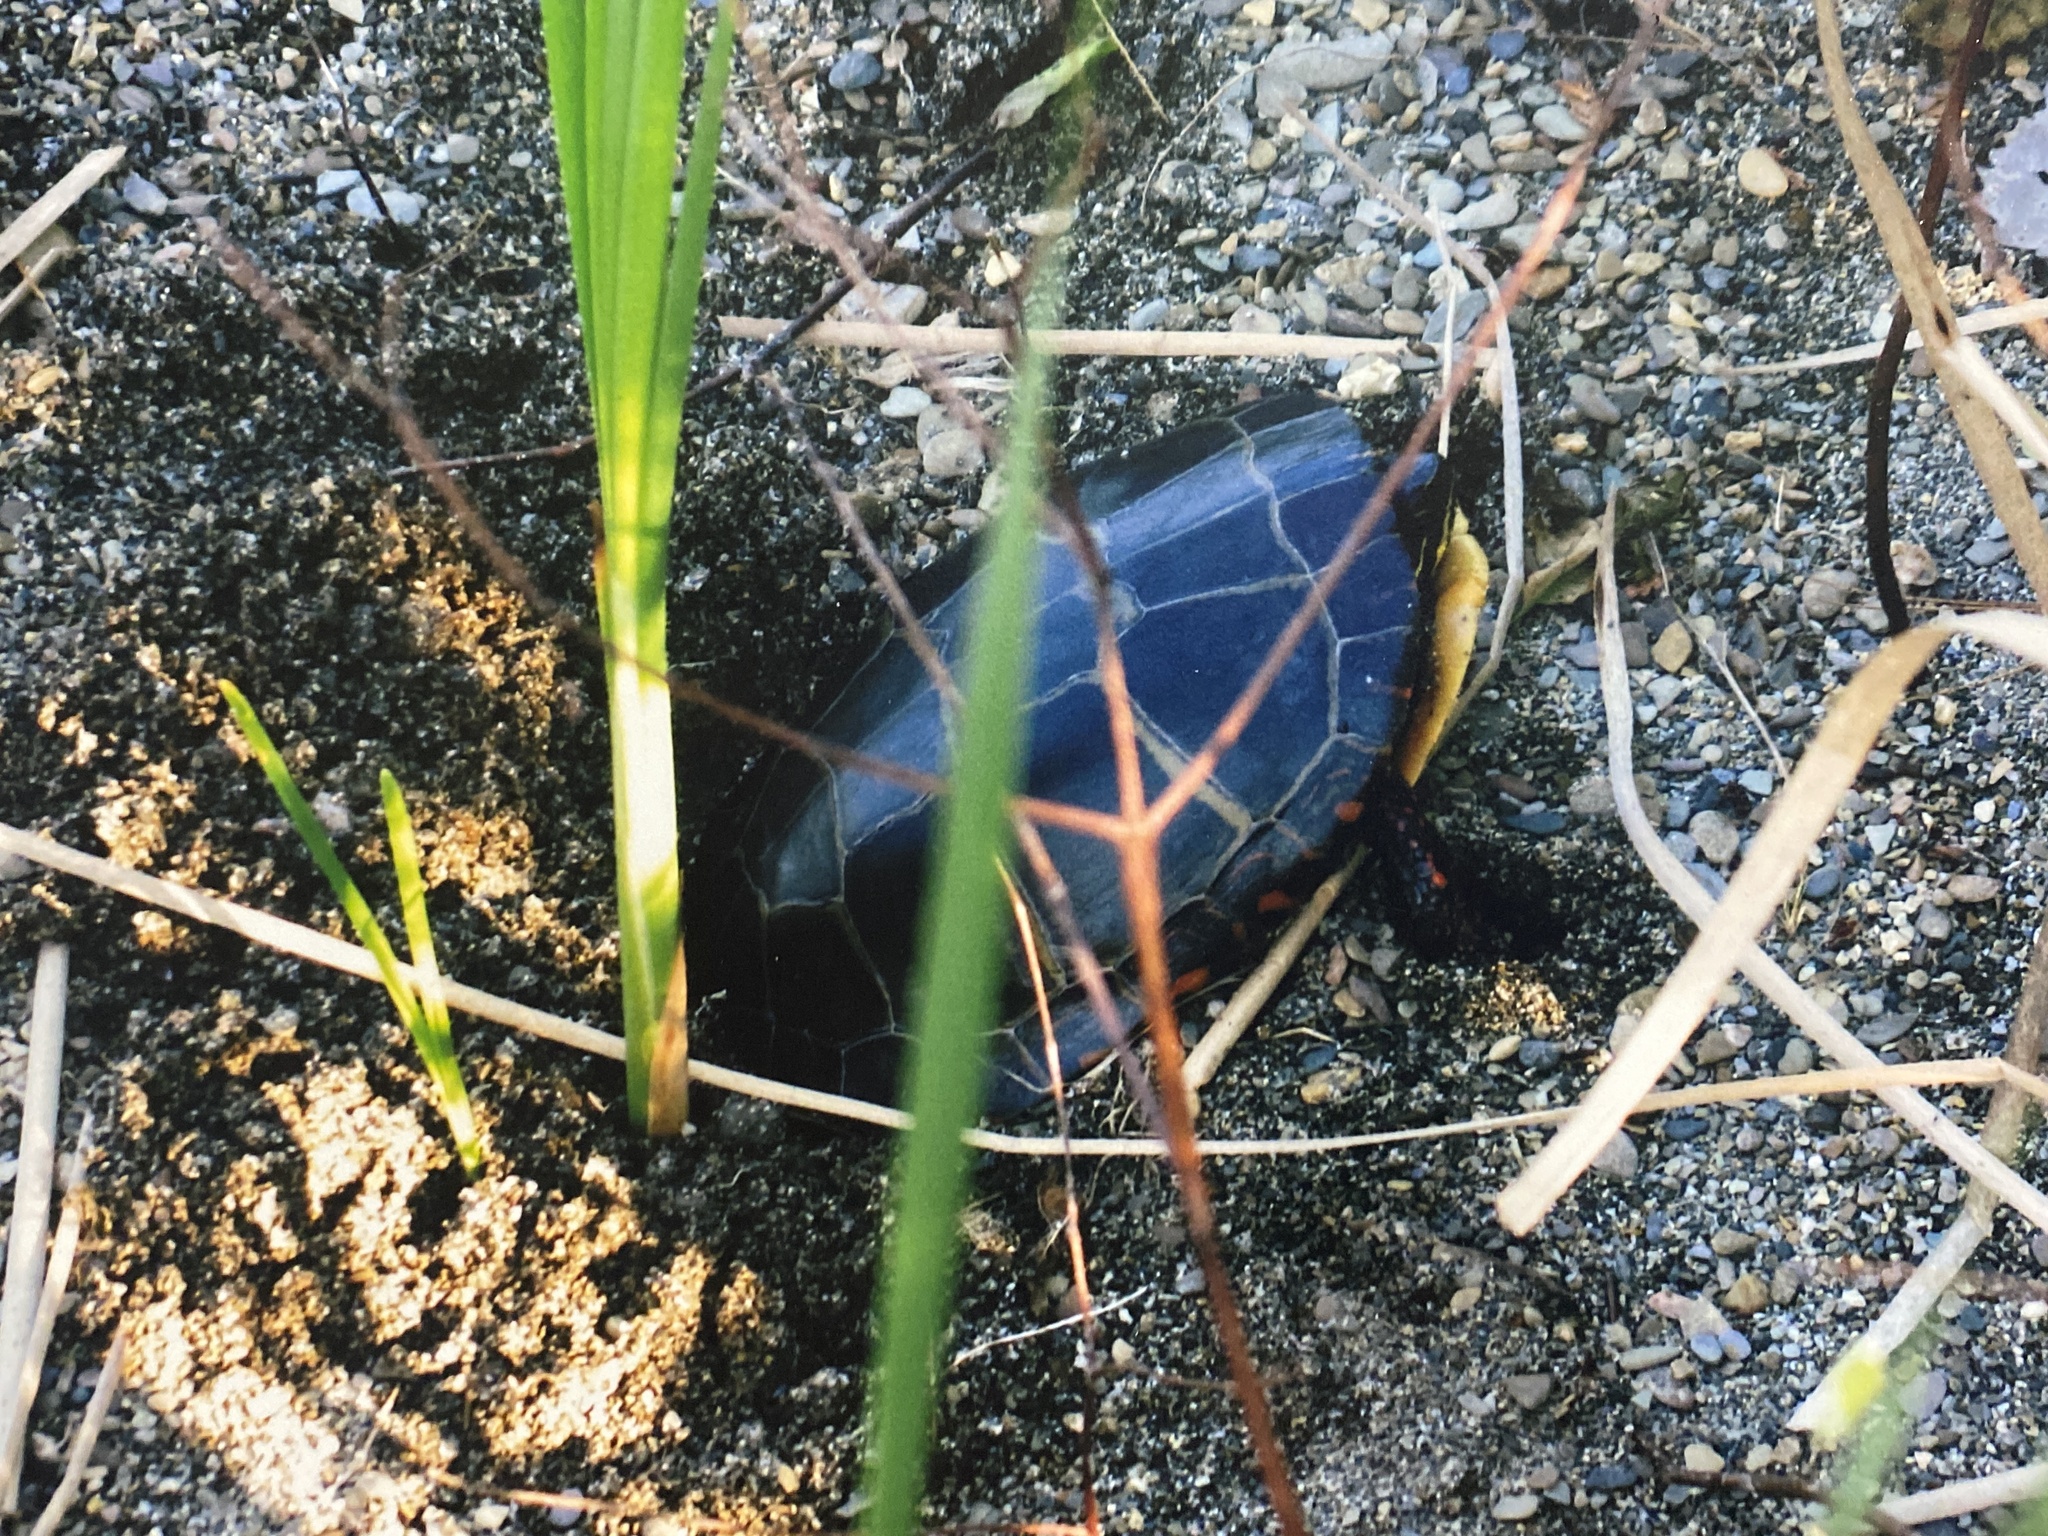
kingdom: Animalia
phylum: Chordata
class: Testudines
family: Emydidae
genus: Chrysemys
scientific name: Chrysemys picta
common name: Painted turtle
